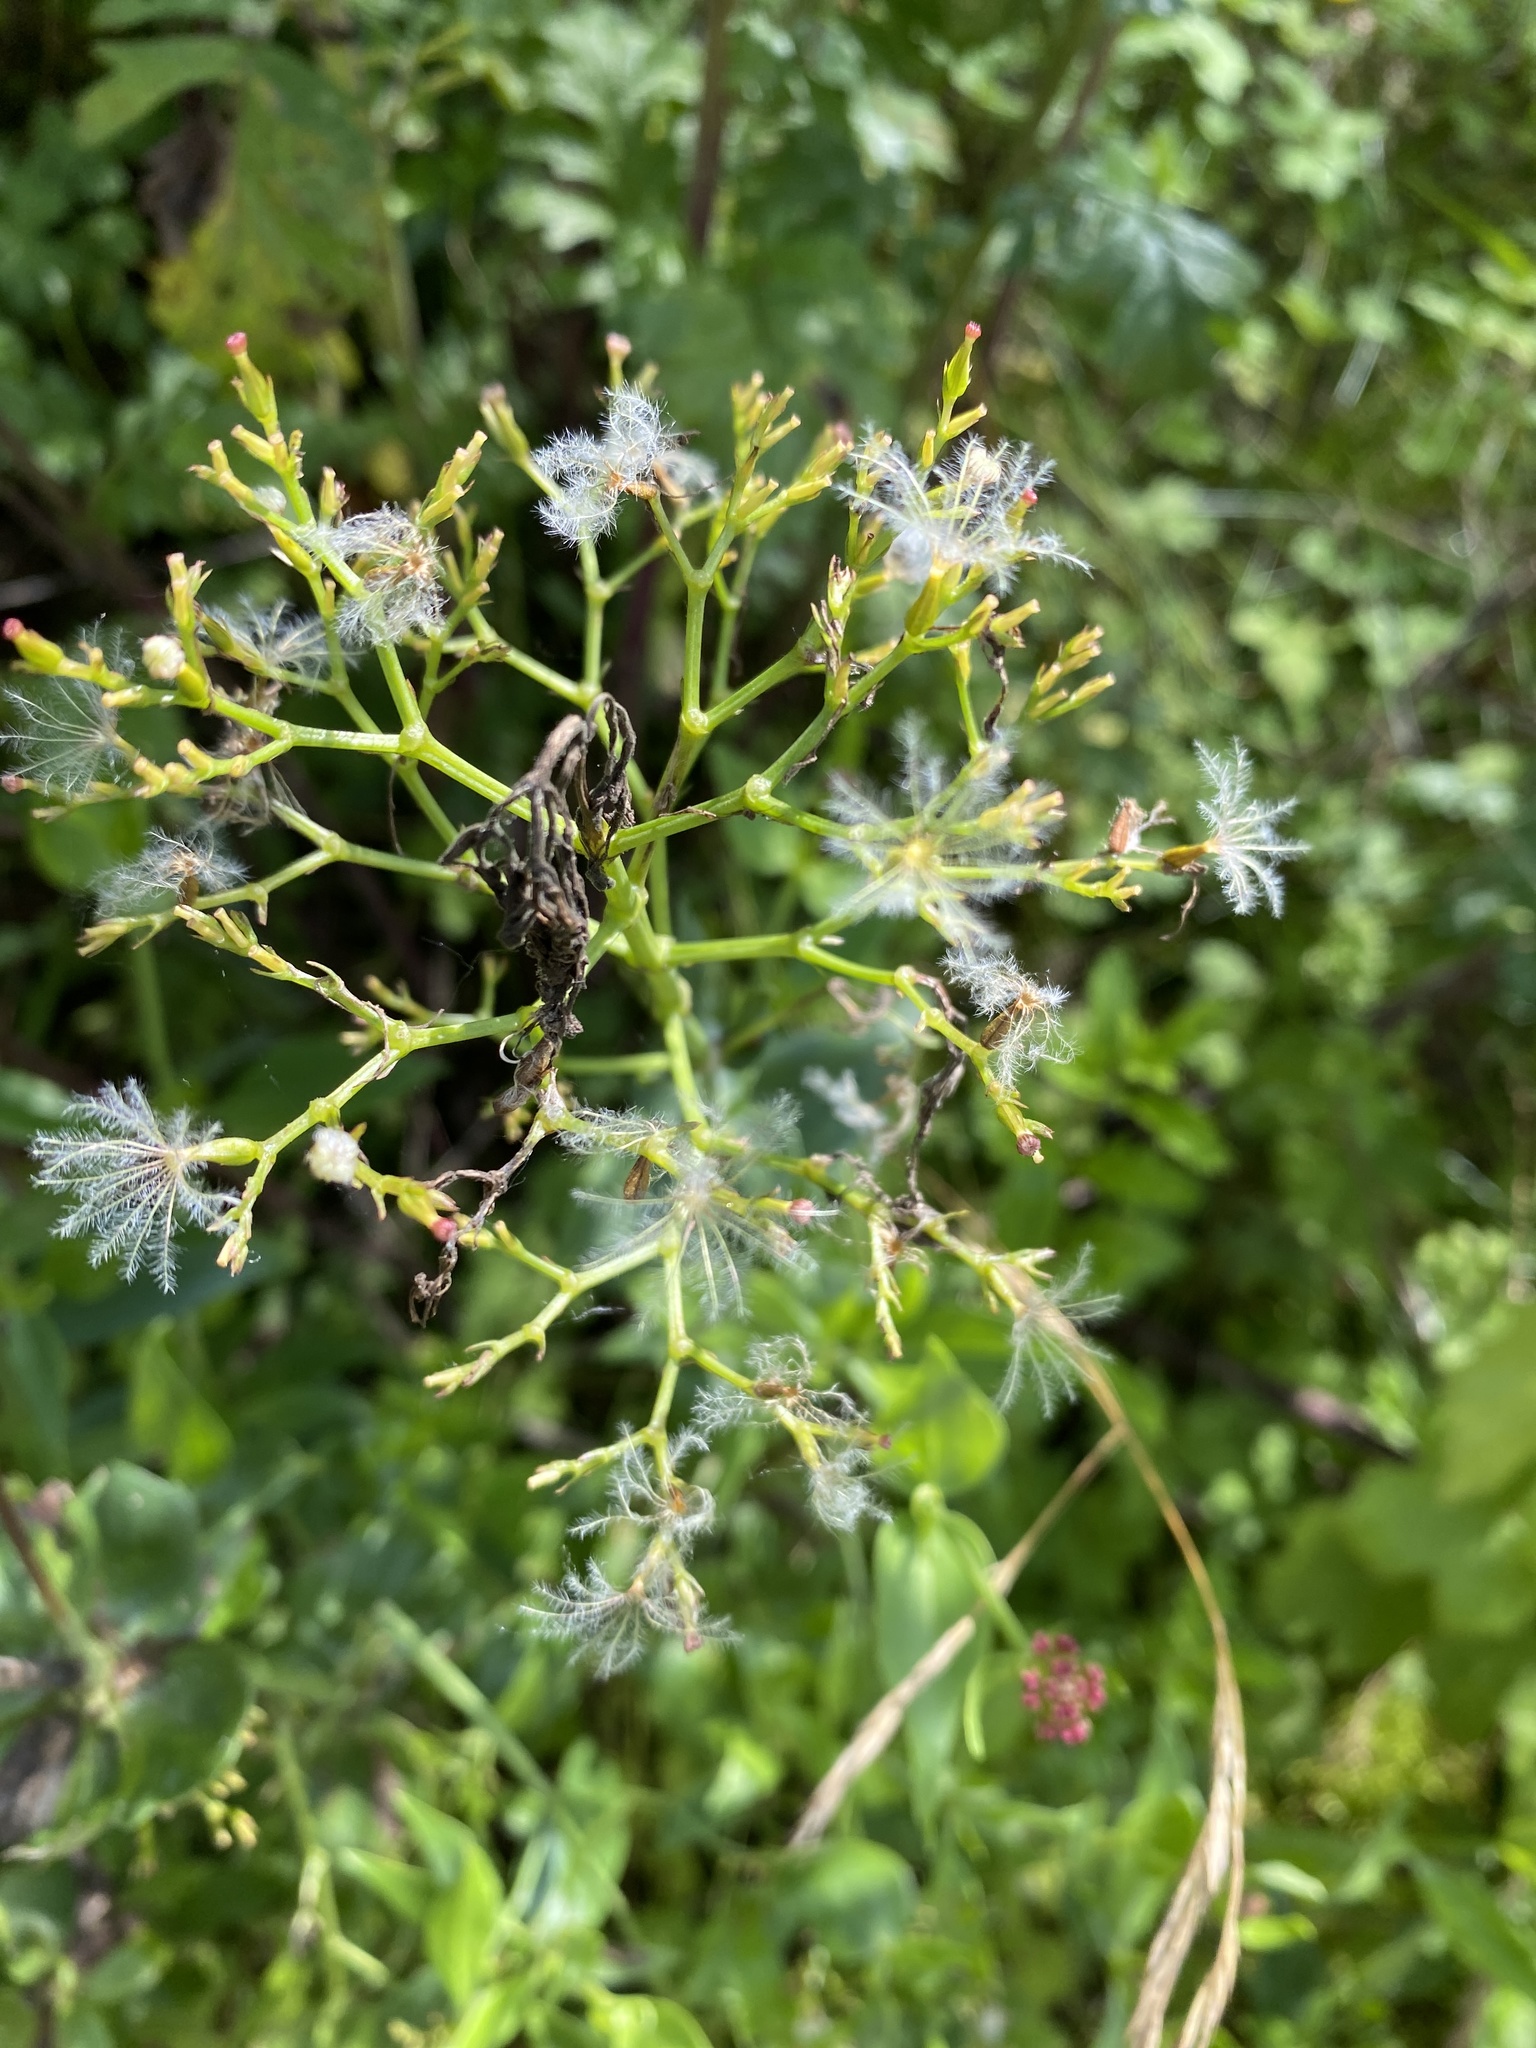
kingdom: Plantae
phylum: Tracheophyta
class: Magnoliopsida
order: Dipsacales
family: Caprifoliaceae
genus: Centranthus
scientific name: Centranthus ruber
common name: Red valerian
